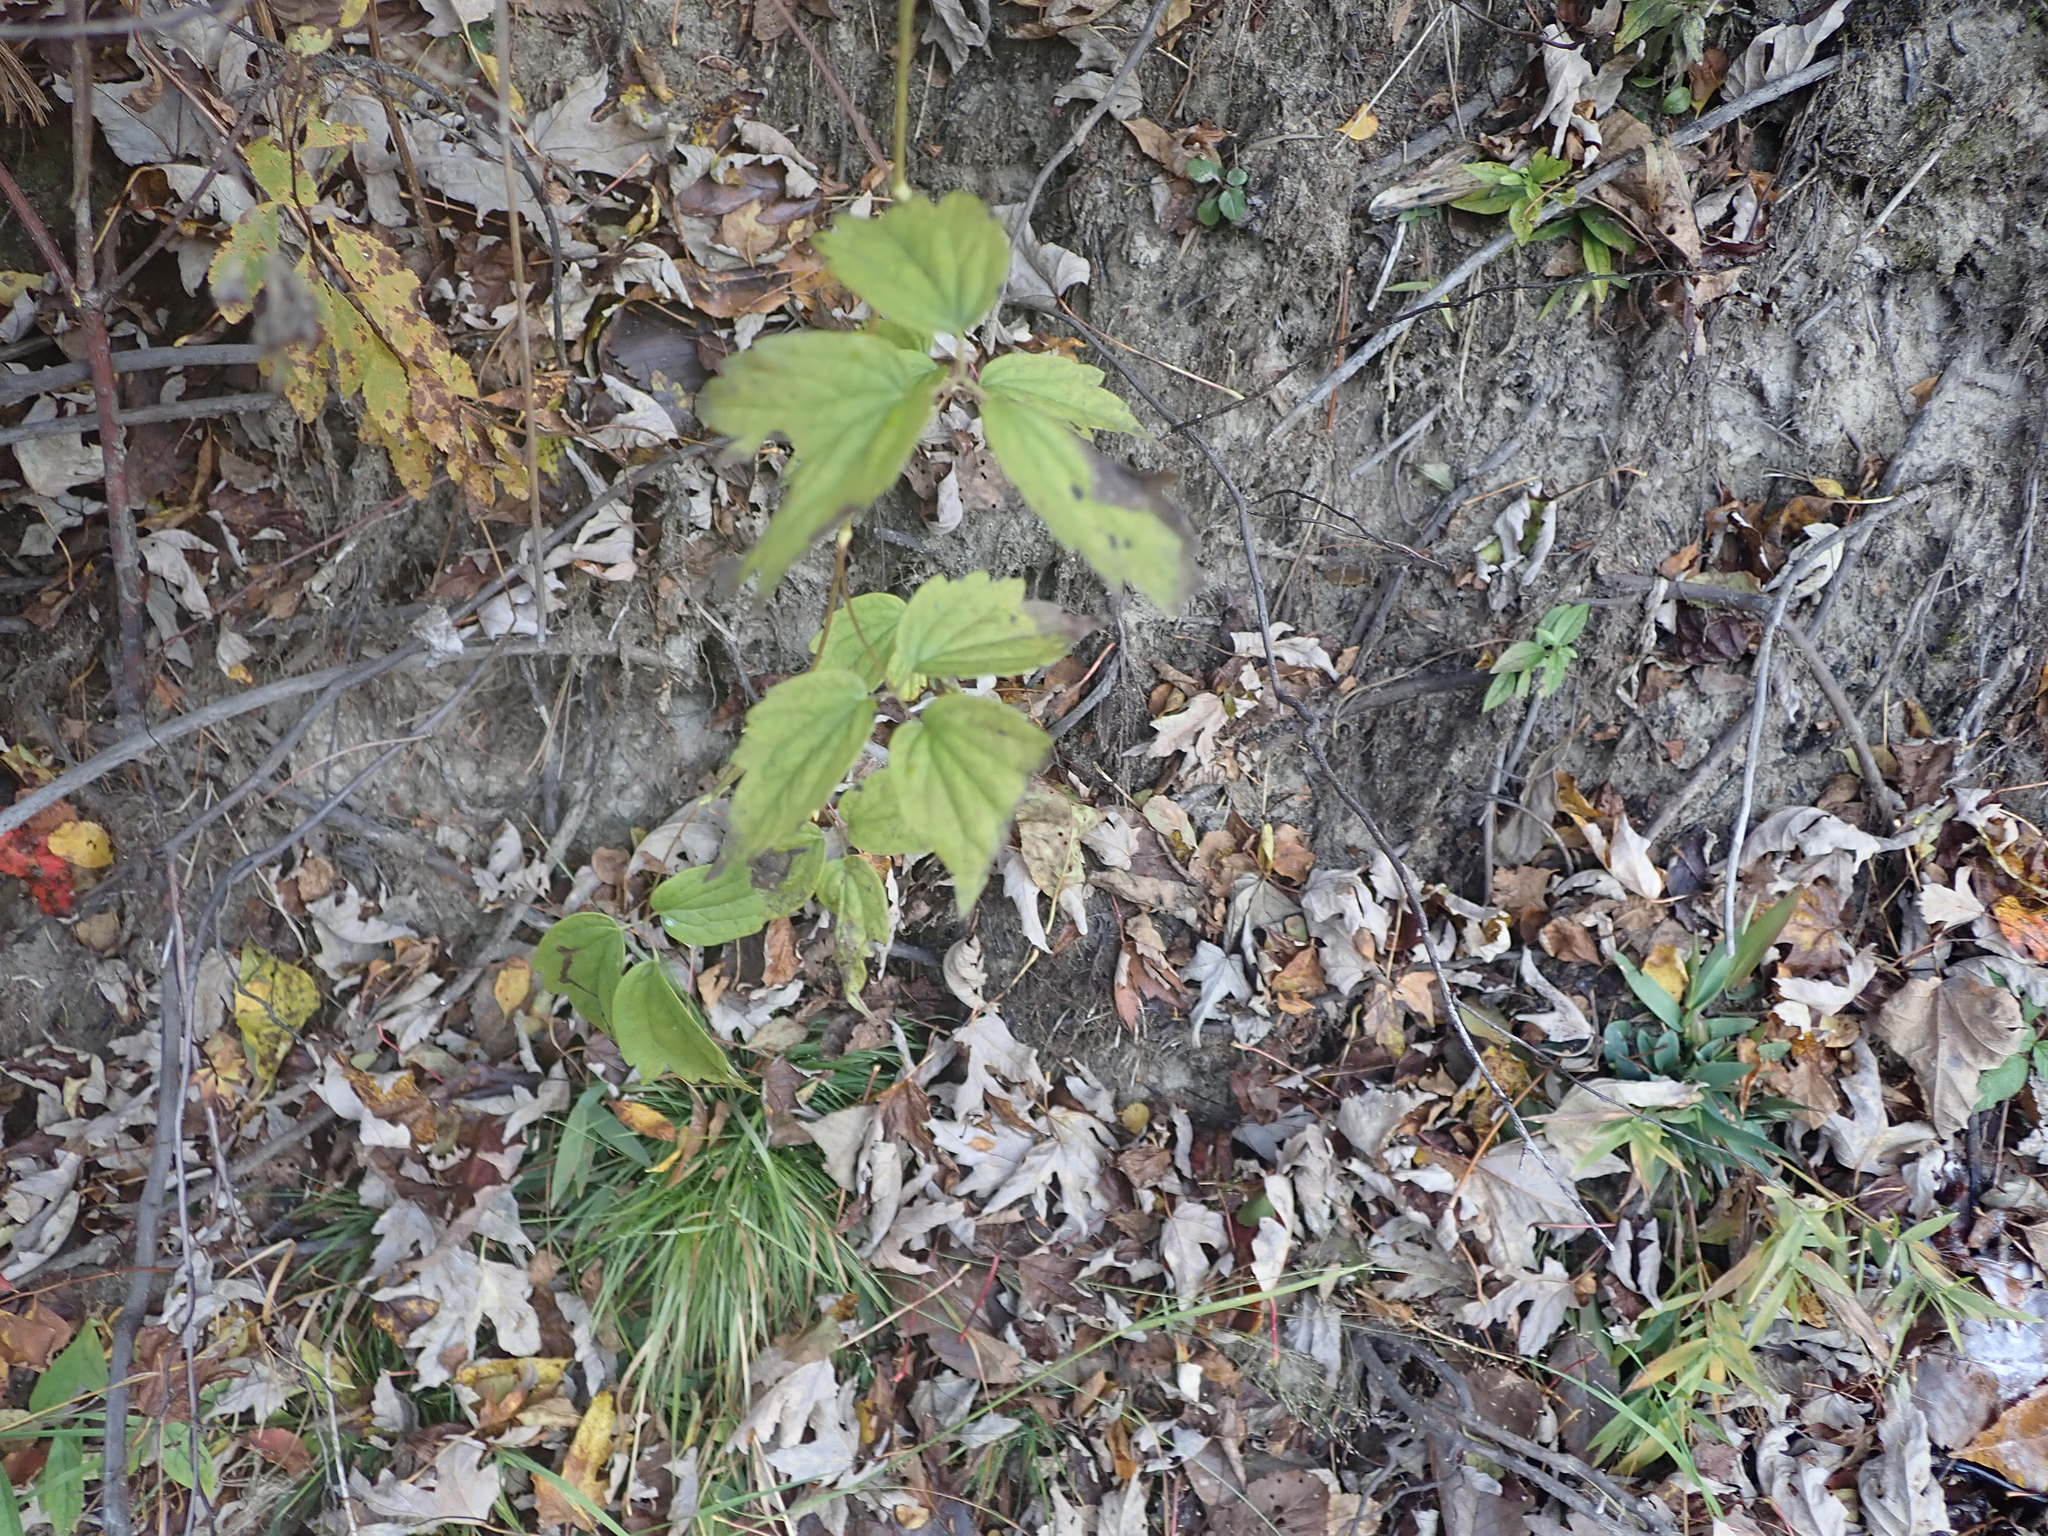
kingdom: Plantae
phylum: Tracheophyta
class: Magnoliopsida
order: Ranunculales
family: Ranunculaceae
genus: Clematis
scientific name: Clematis virginiana
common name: Virgin's-bower
